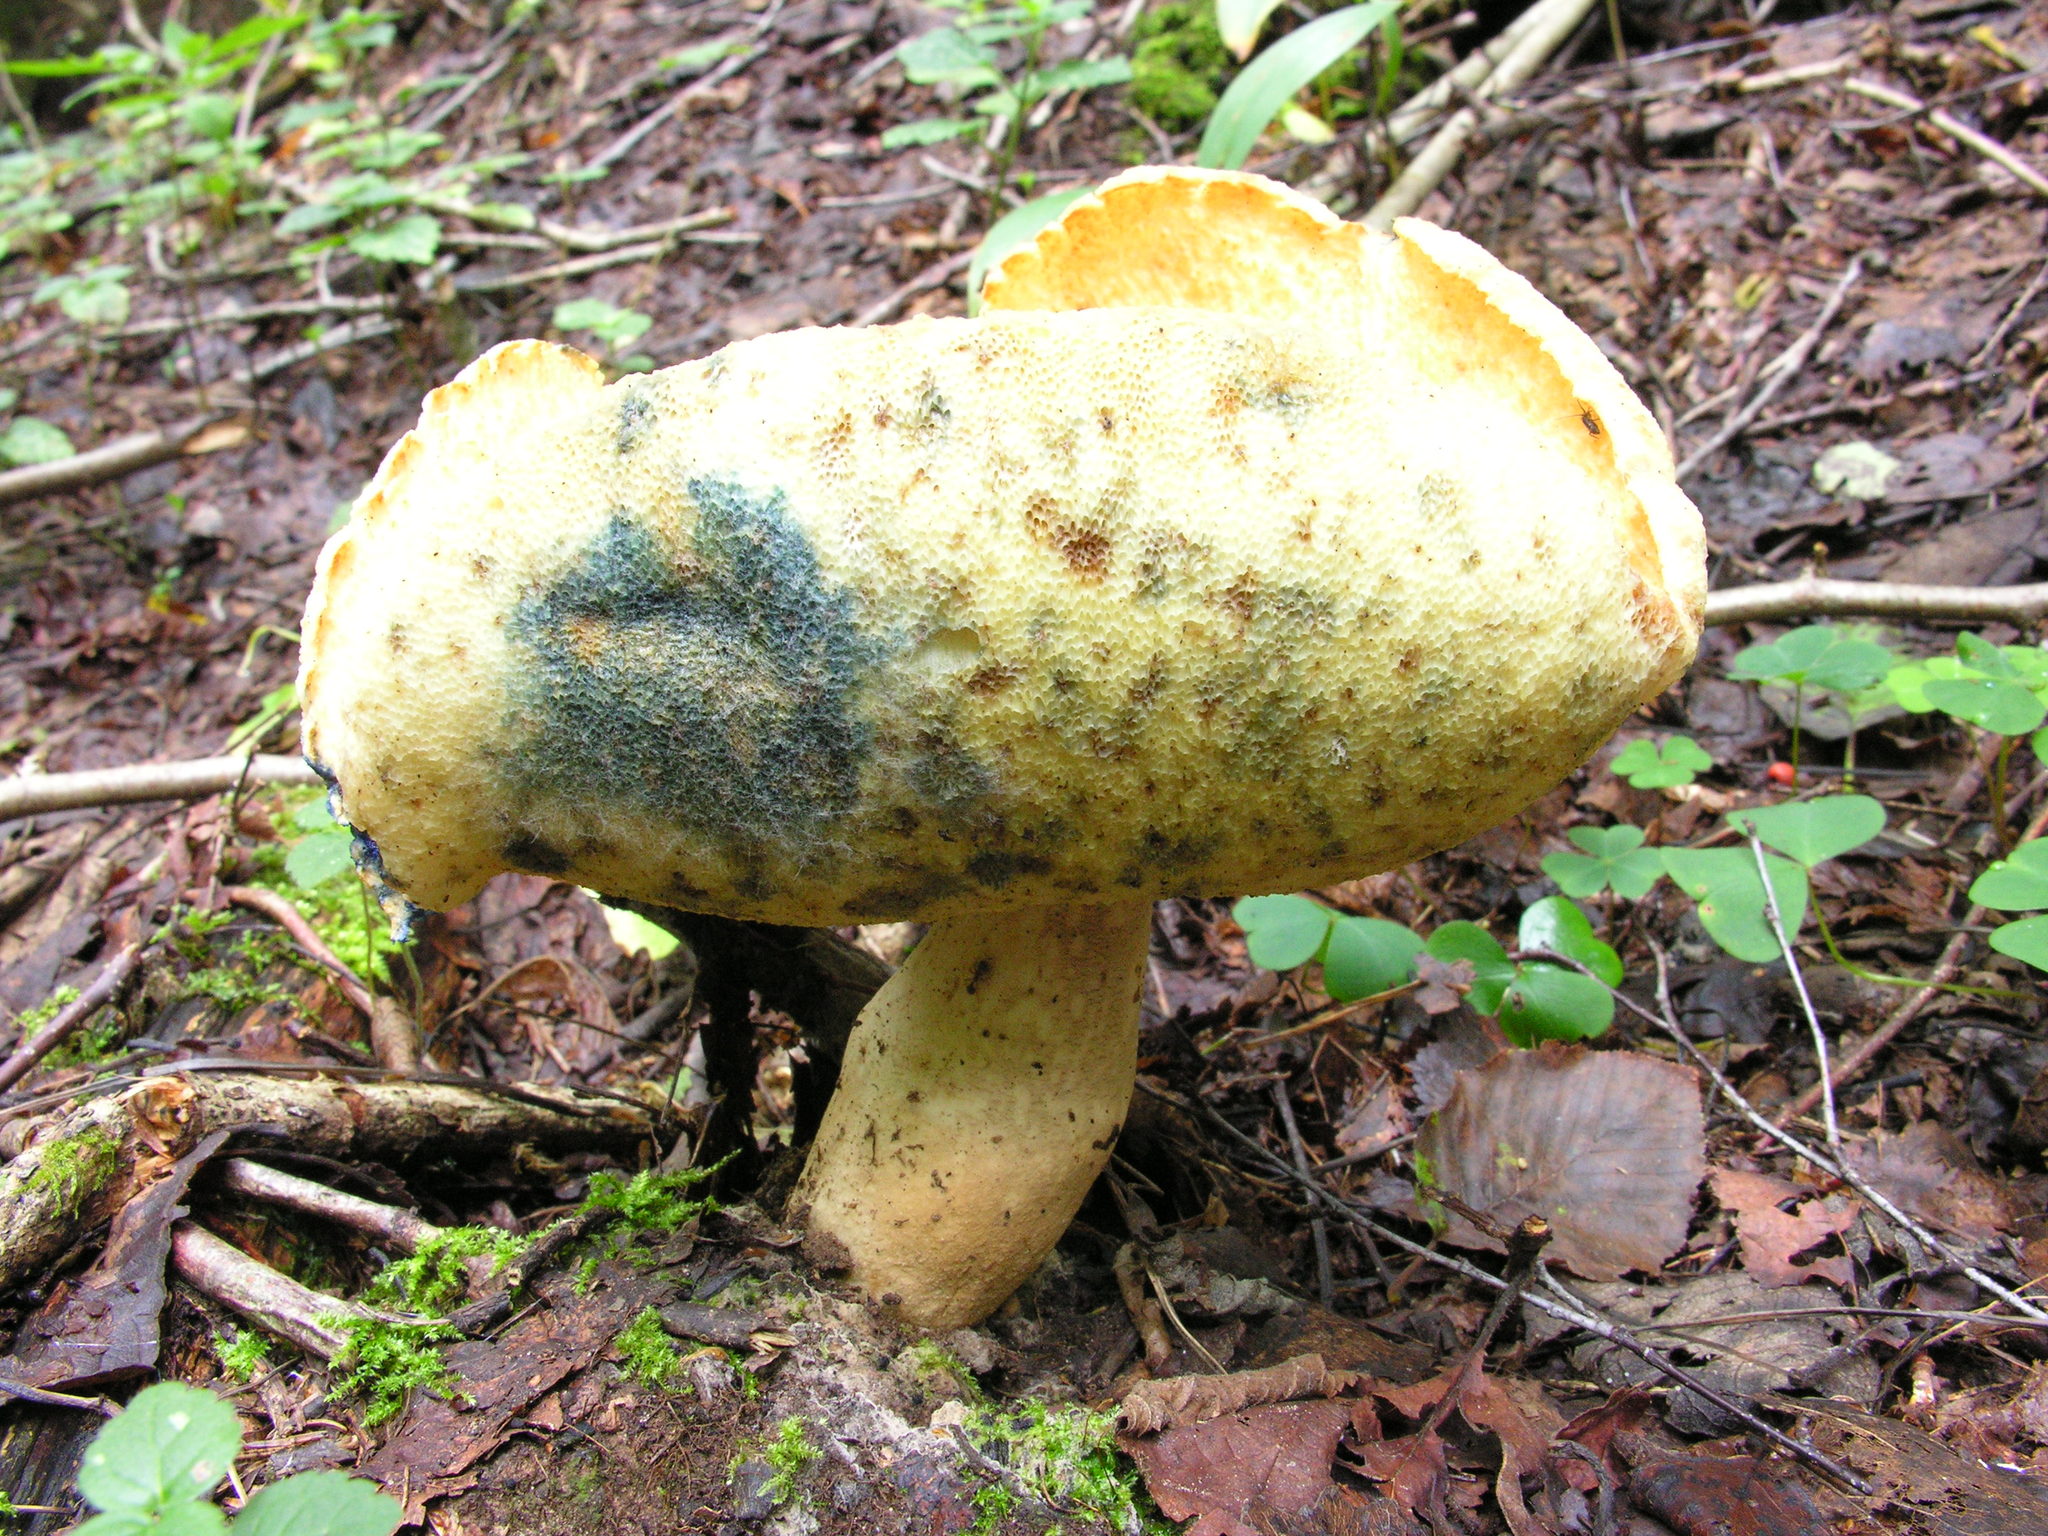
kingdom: Fungi
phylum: Basidiomycota
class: Agaricomycetes
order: Boletales
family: Gyroporaceae
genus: Gyroporus
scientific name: Gyroporus cyanescens
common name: Cornflower bolete
